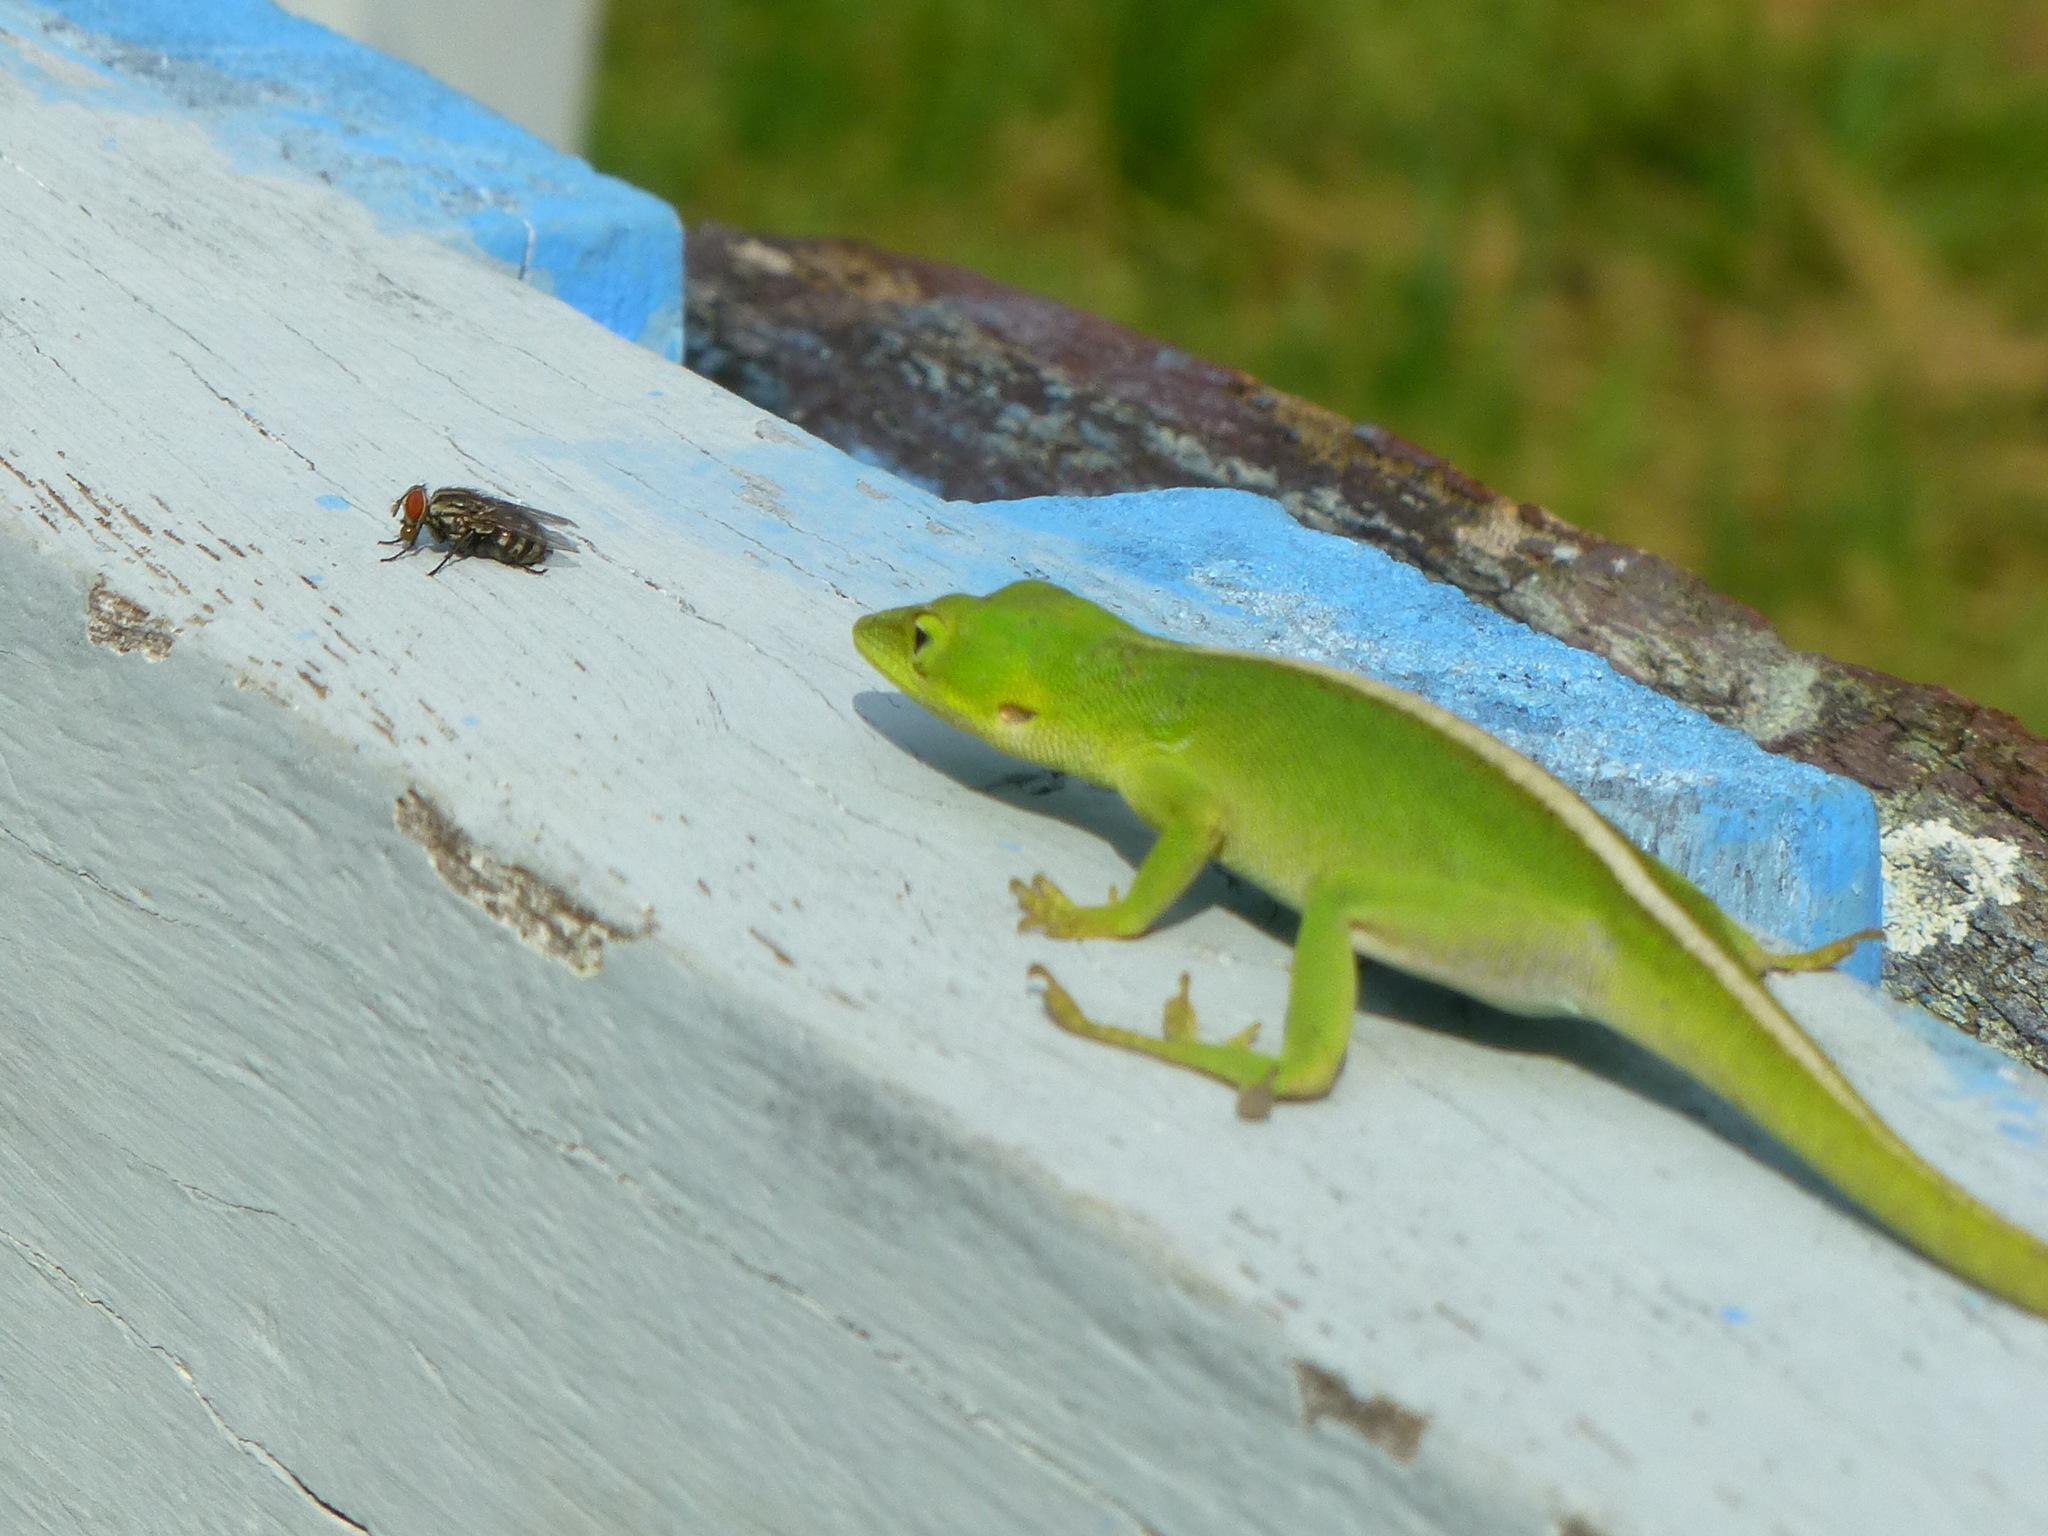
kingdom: Animalia
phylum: Chordata
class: Squamata
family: Dactyloidae
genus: Anolis
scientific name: Anolis porcatus
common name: Cuban green anole
